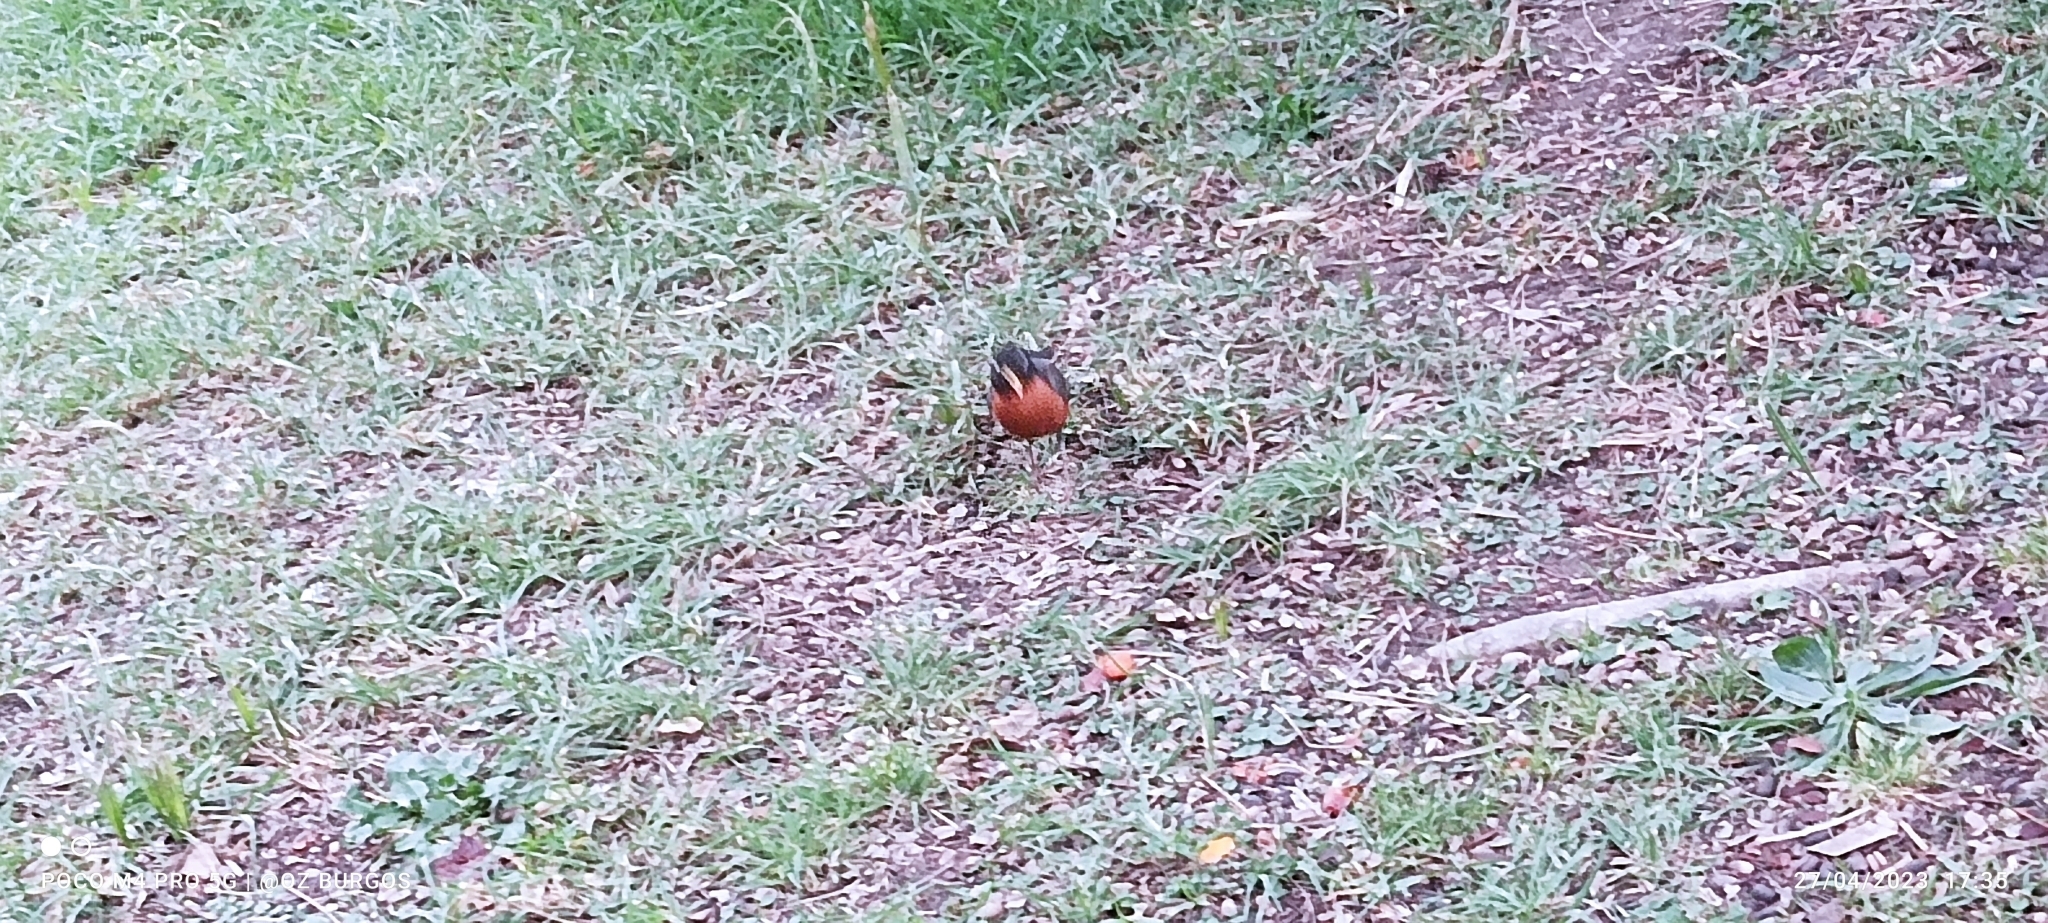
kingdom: Animalia
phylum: Chordata
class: Aves
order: Passeriformes
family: Turdidae
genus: Turdus
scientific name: Turdus migratorius
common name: American robin
